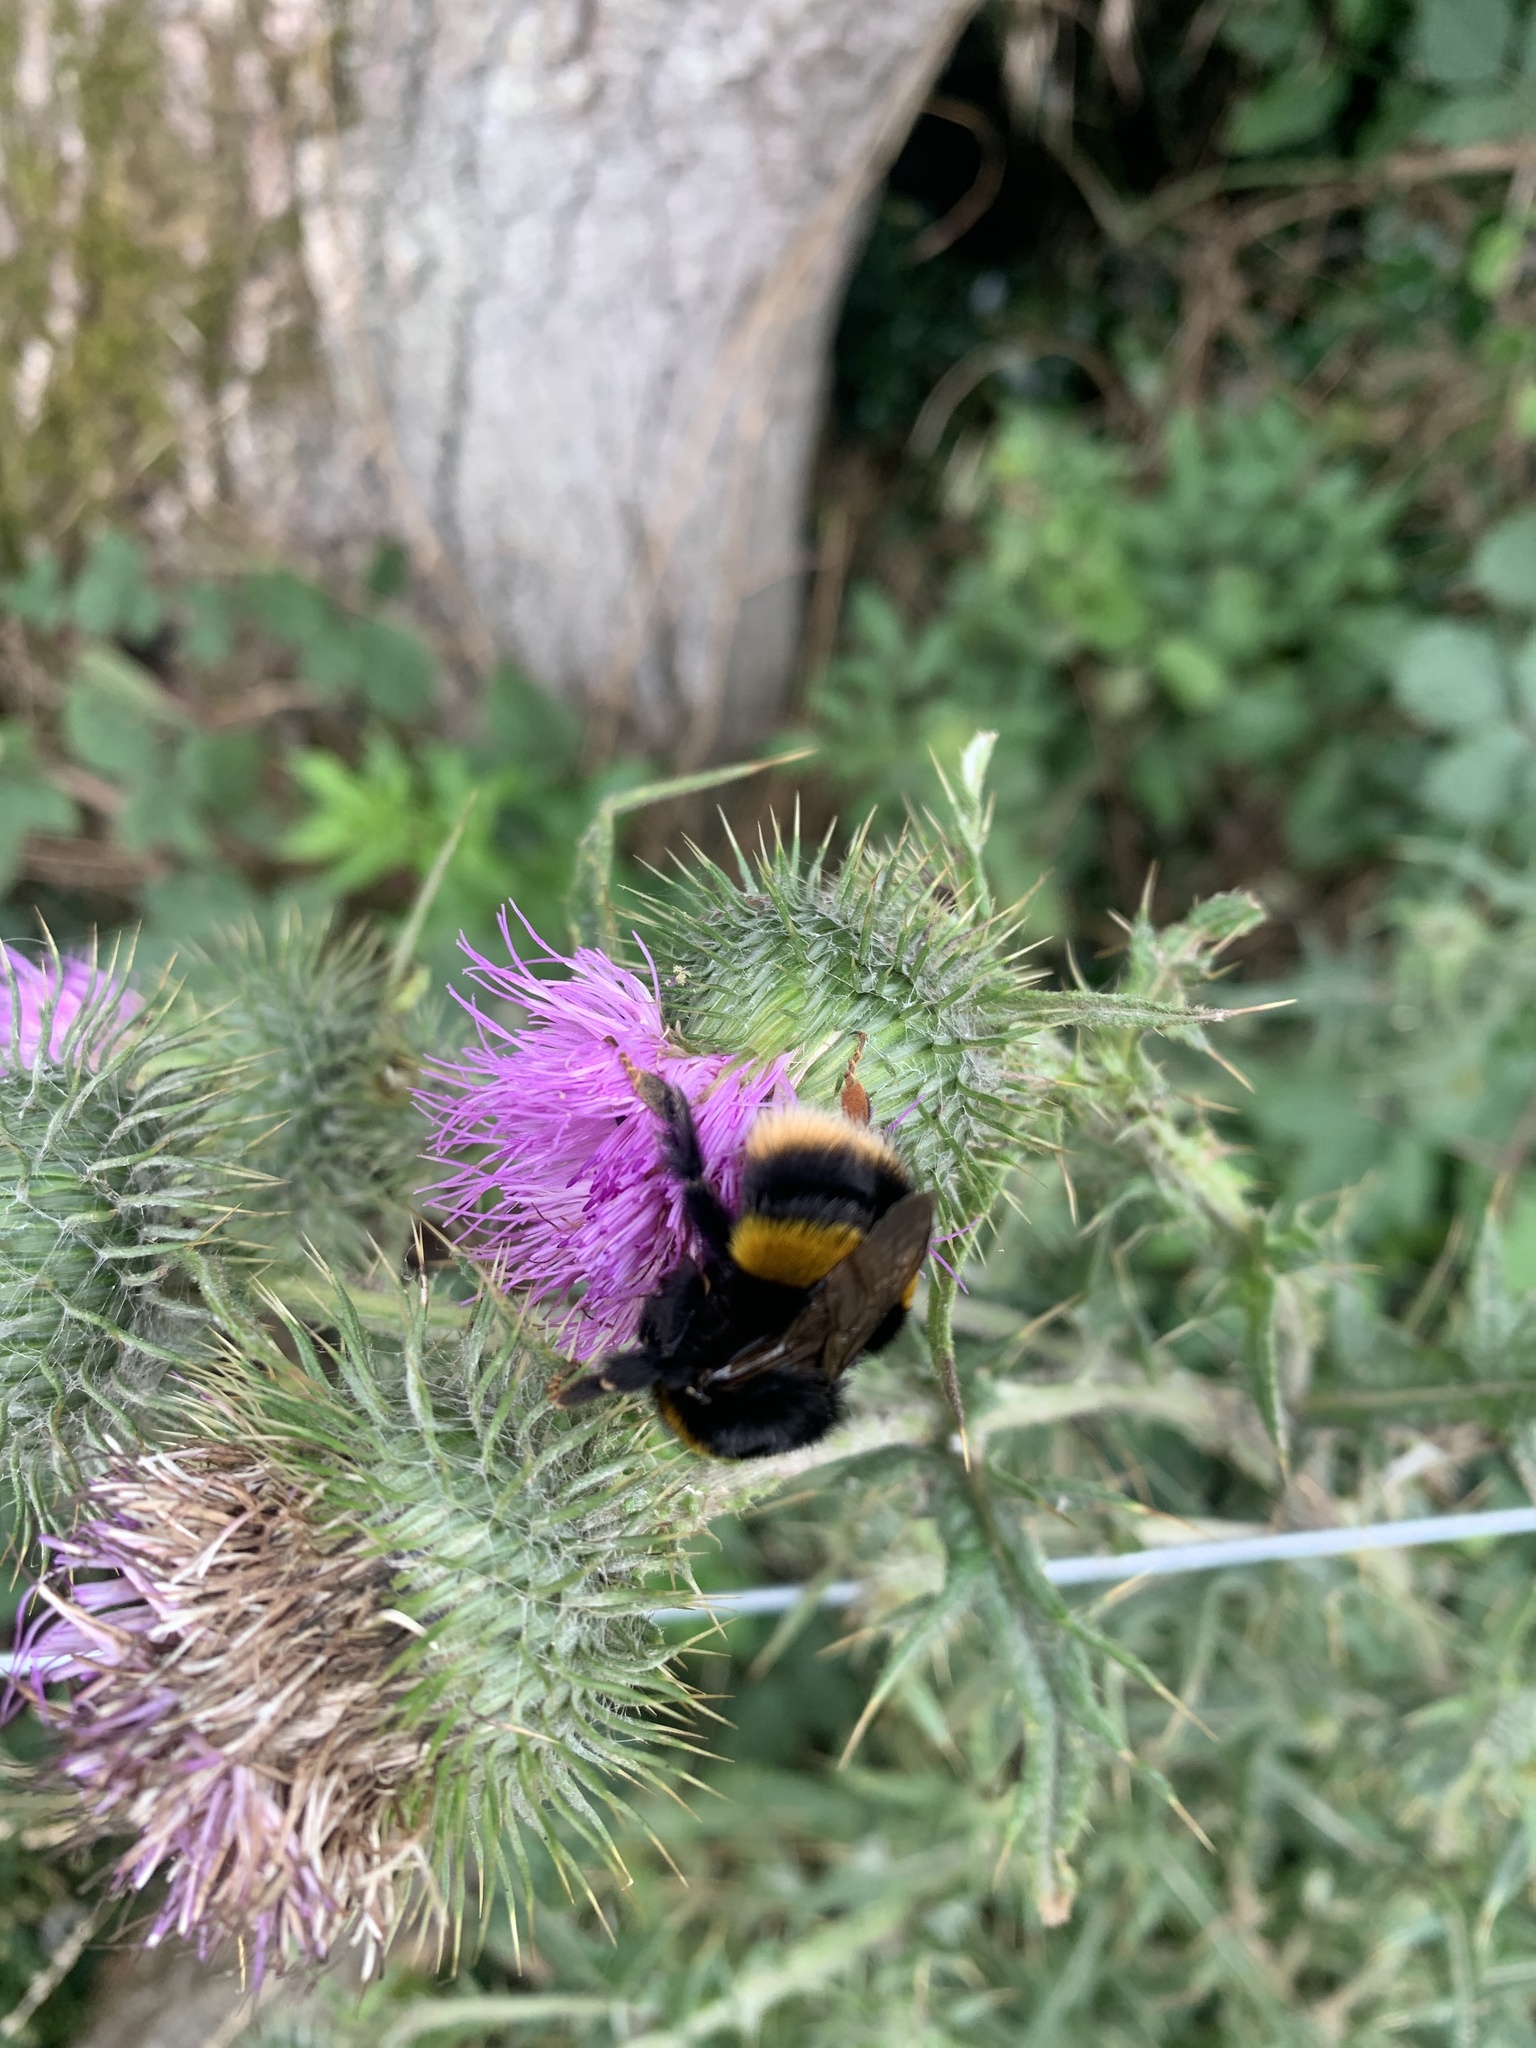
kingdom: Animalia
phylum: Arthropoda
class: Insecta
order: Hymenoptera
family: Apidae
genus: Bombus
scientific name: Bombus terrestris
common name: Buff-tailed bumblebee
